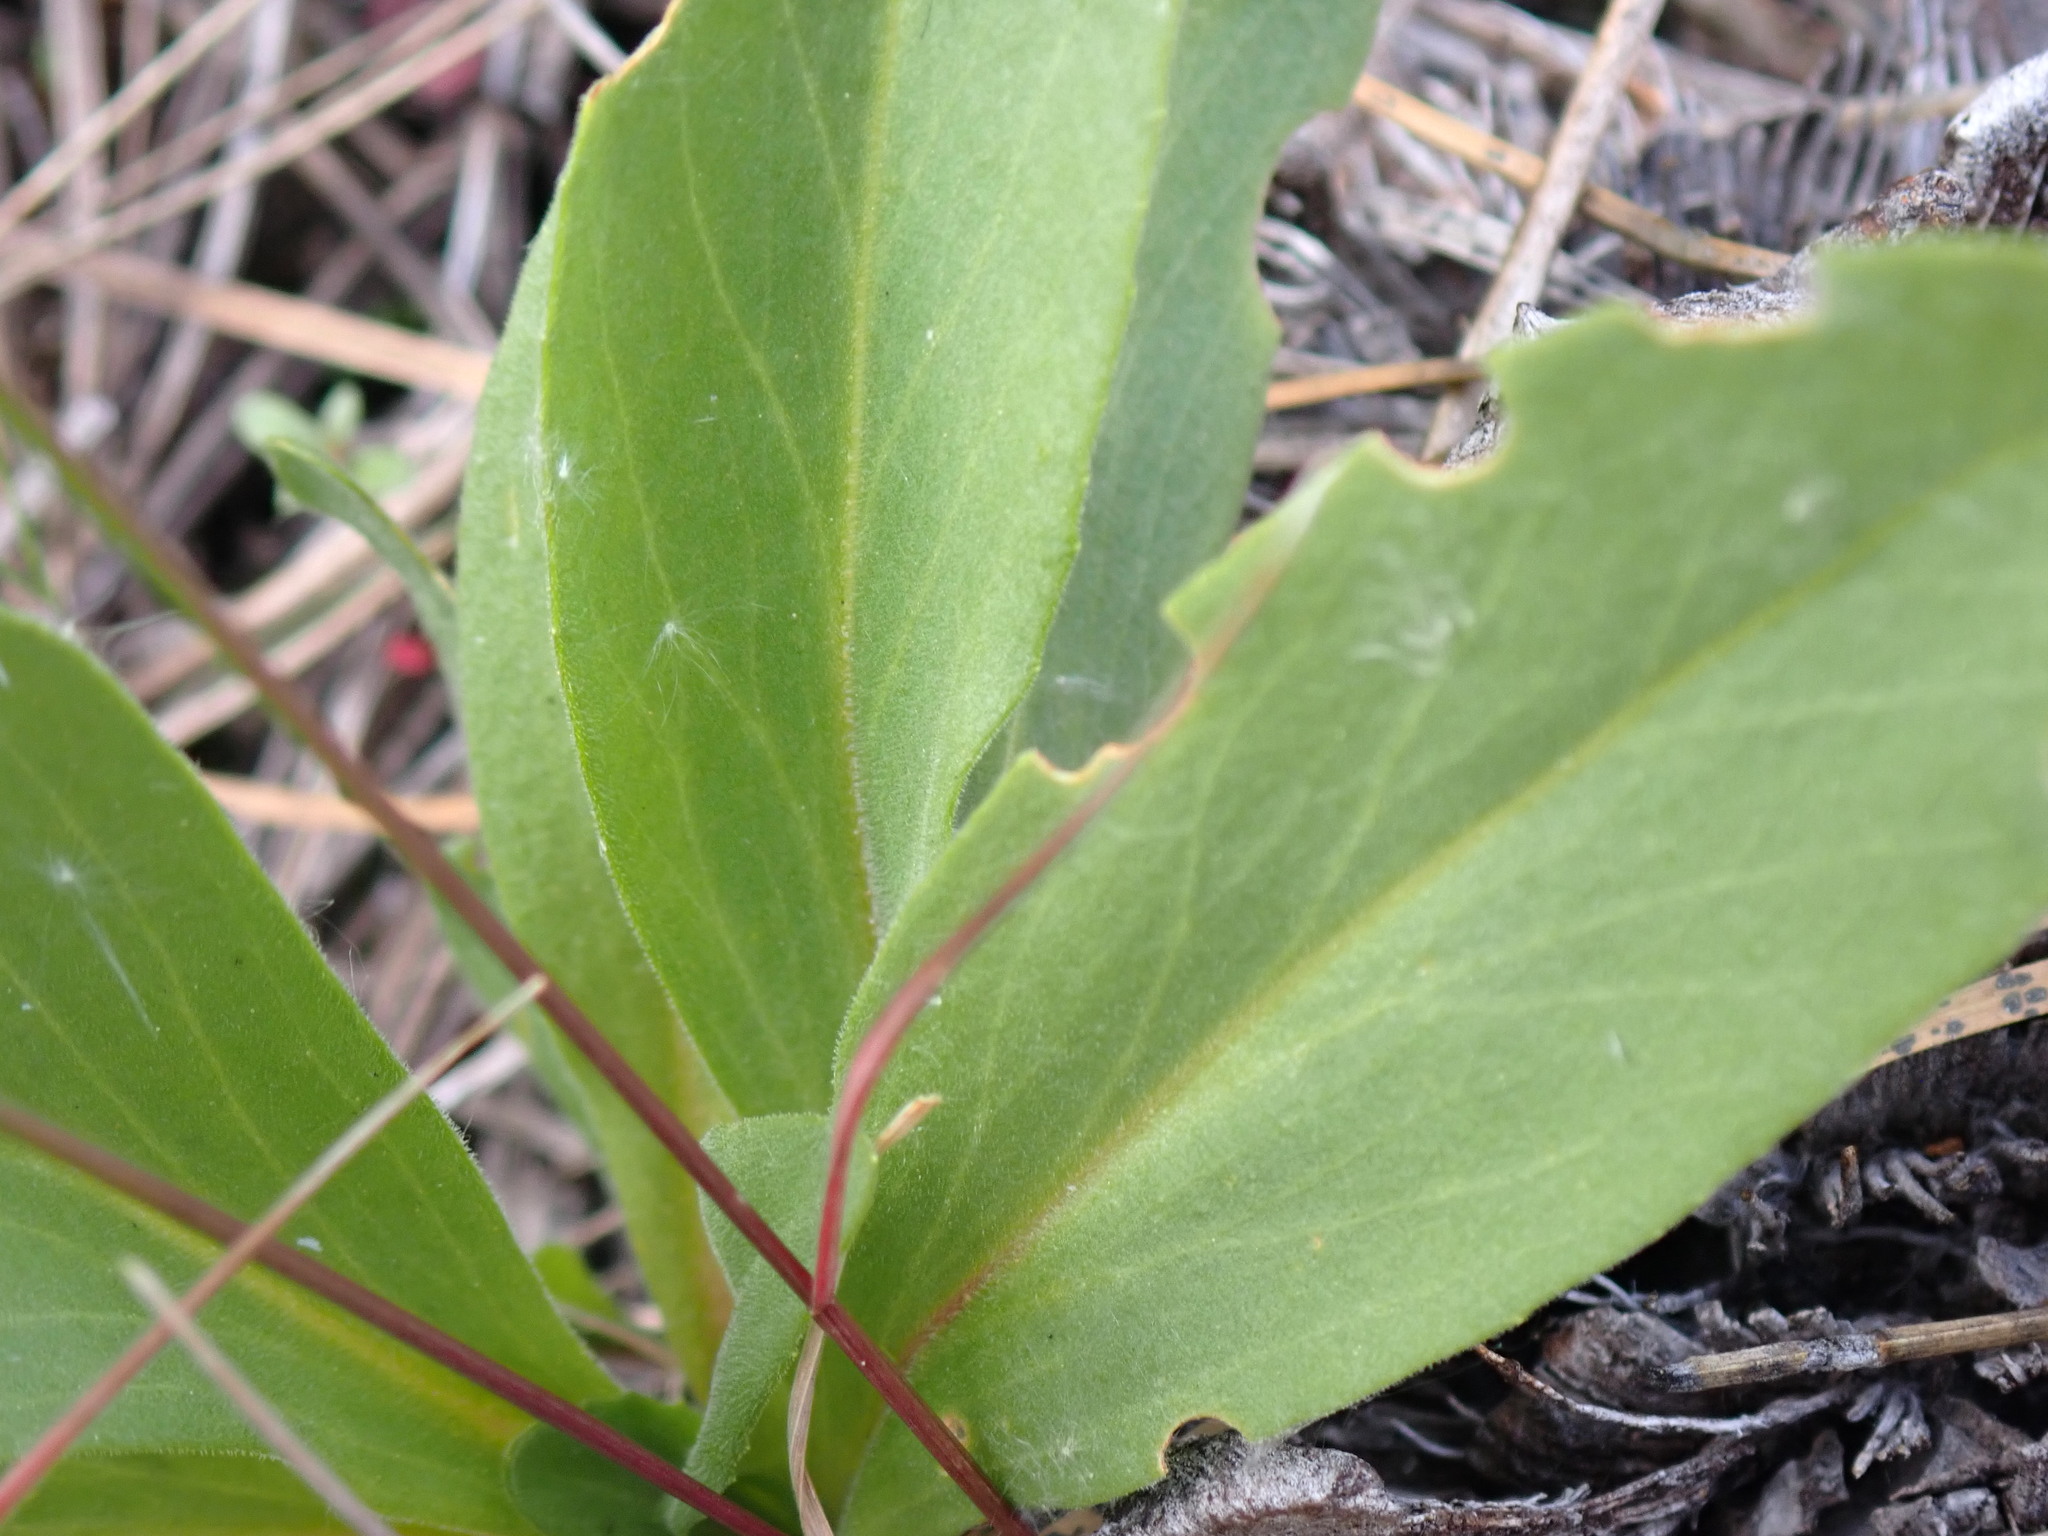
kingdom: Plantae
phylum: Tracheophyta
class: Magnoliopsida
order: Ericales
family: Primulaceae
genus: Dodecatheon
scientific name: Dodecatheon pulchellum
